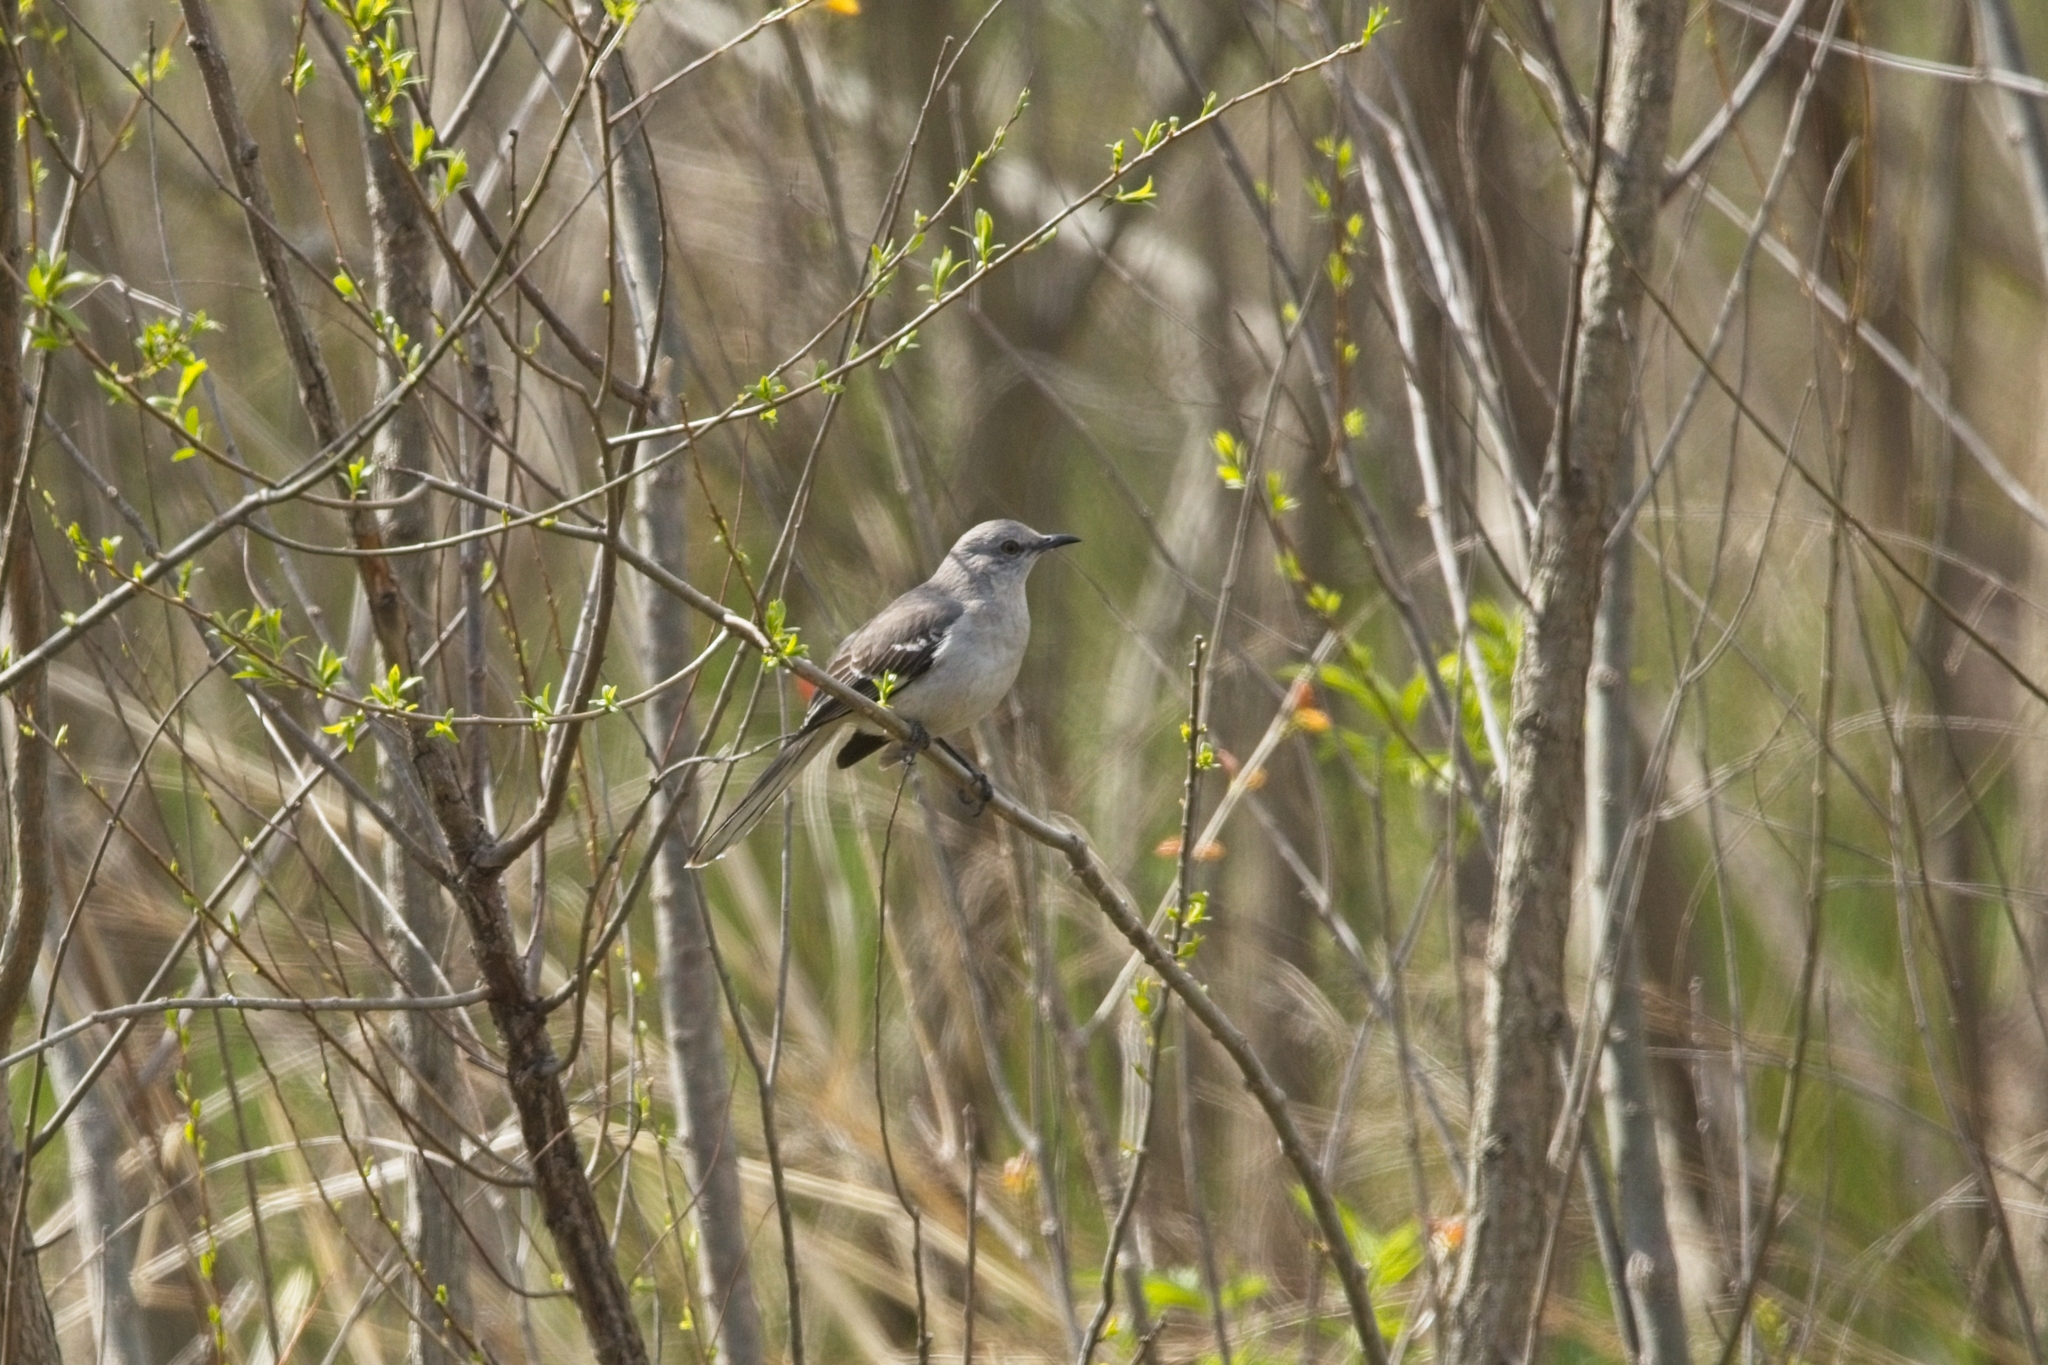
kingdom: Animalia
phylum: Chordata
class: Aves
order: Passeriformes
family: Mimidae
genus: Mimus
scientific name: Mimus polyglottos
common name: Northern mockingbird
